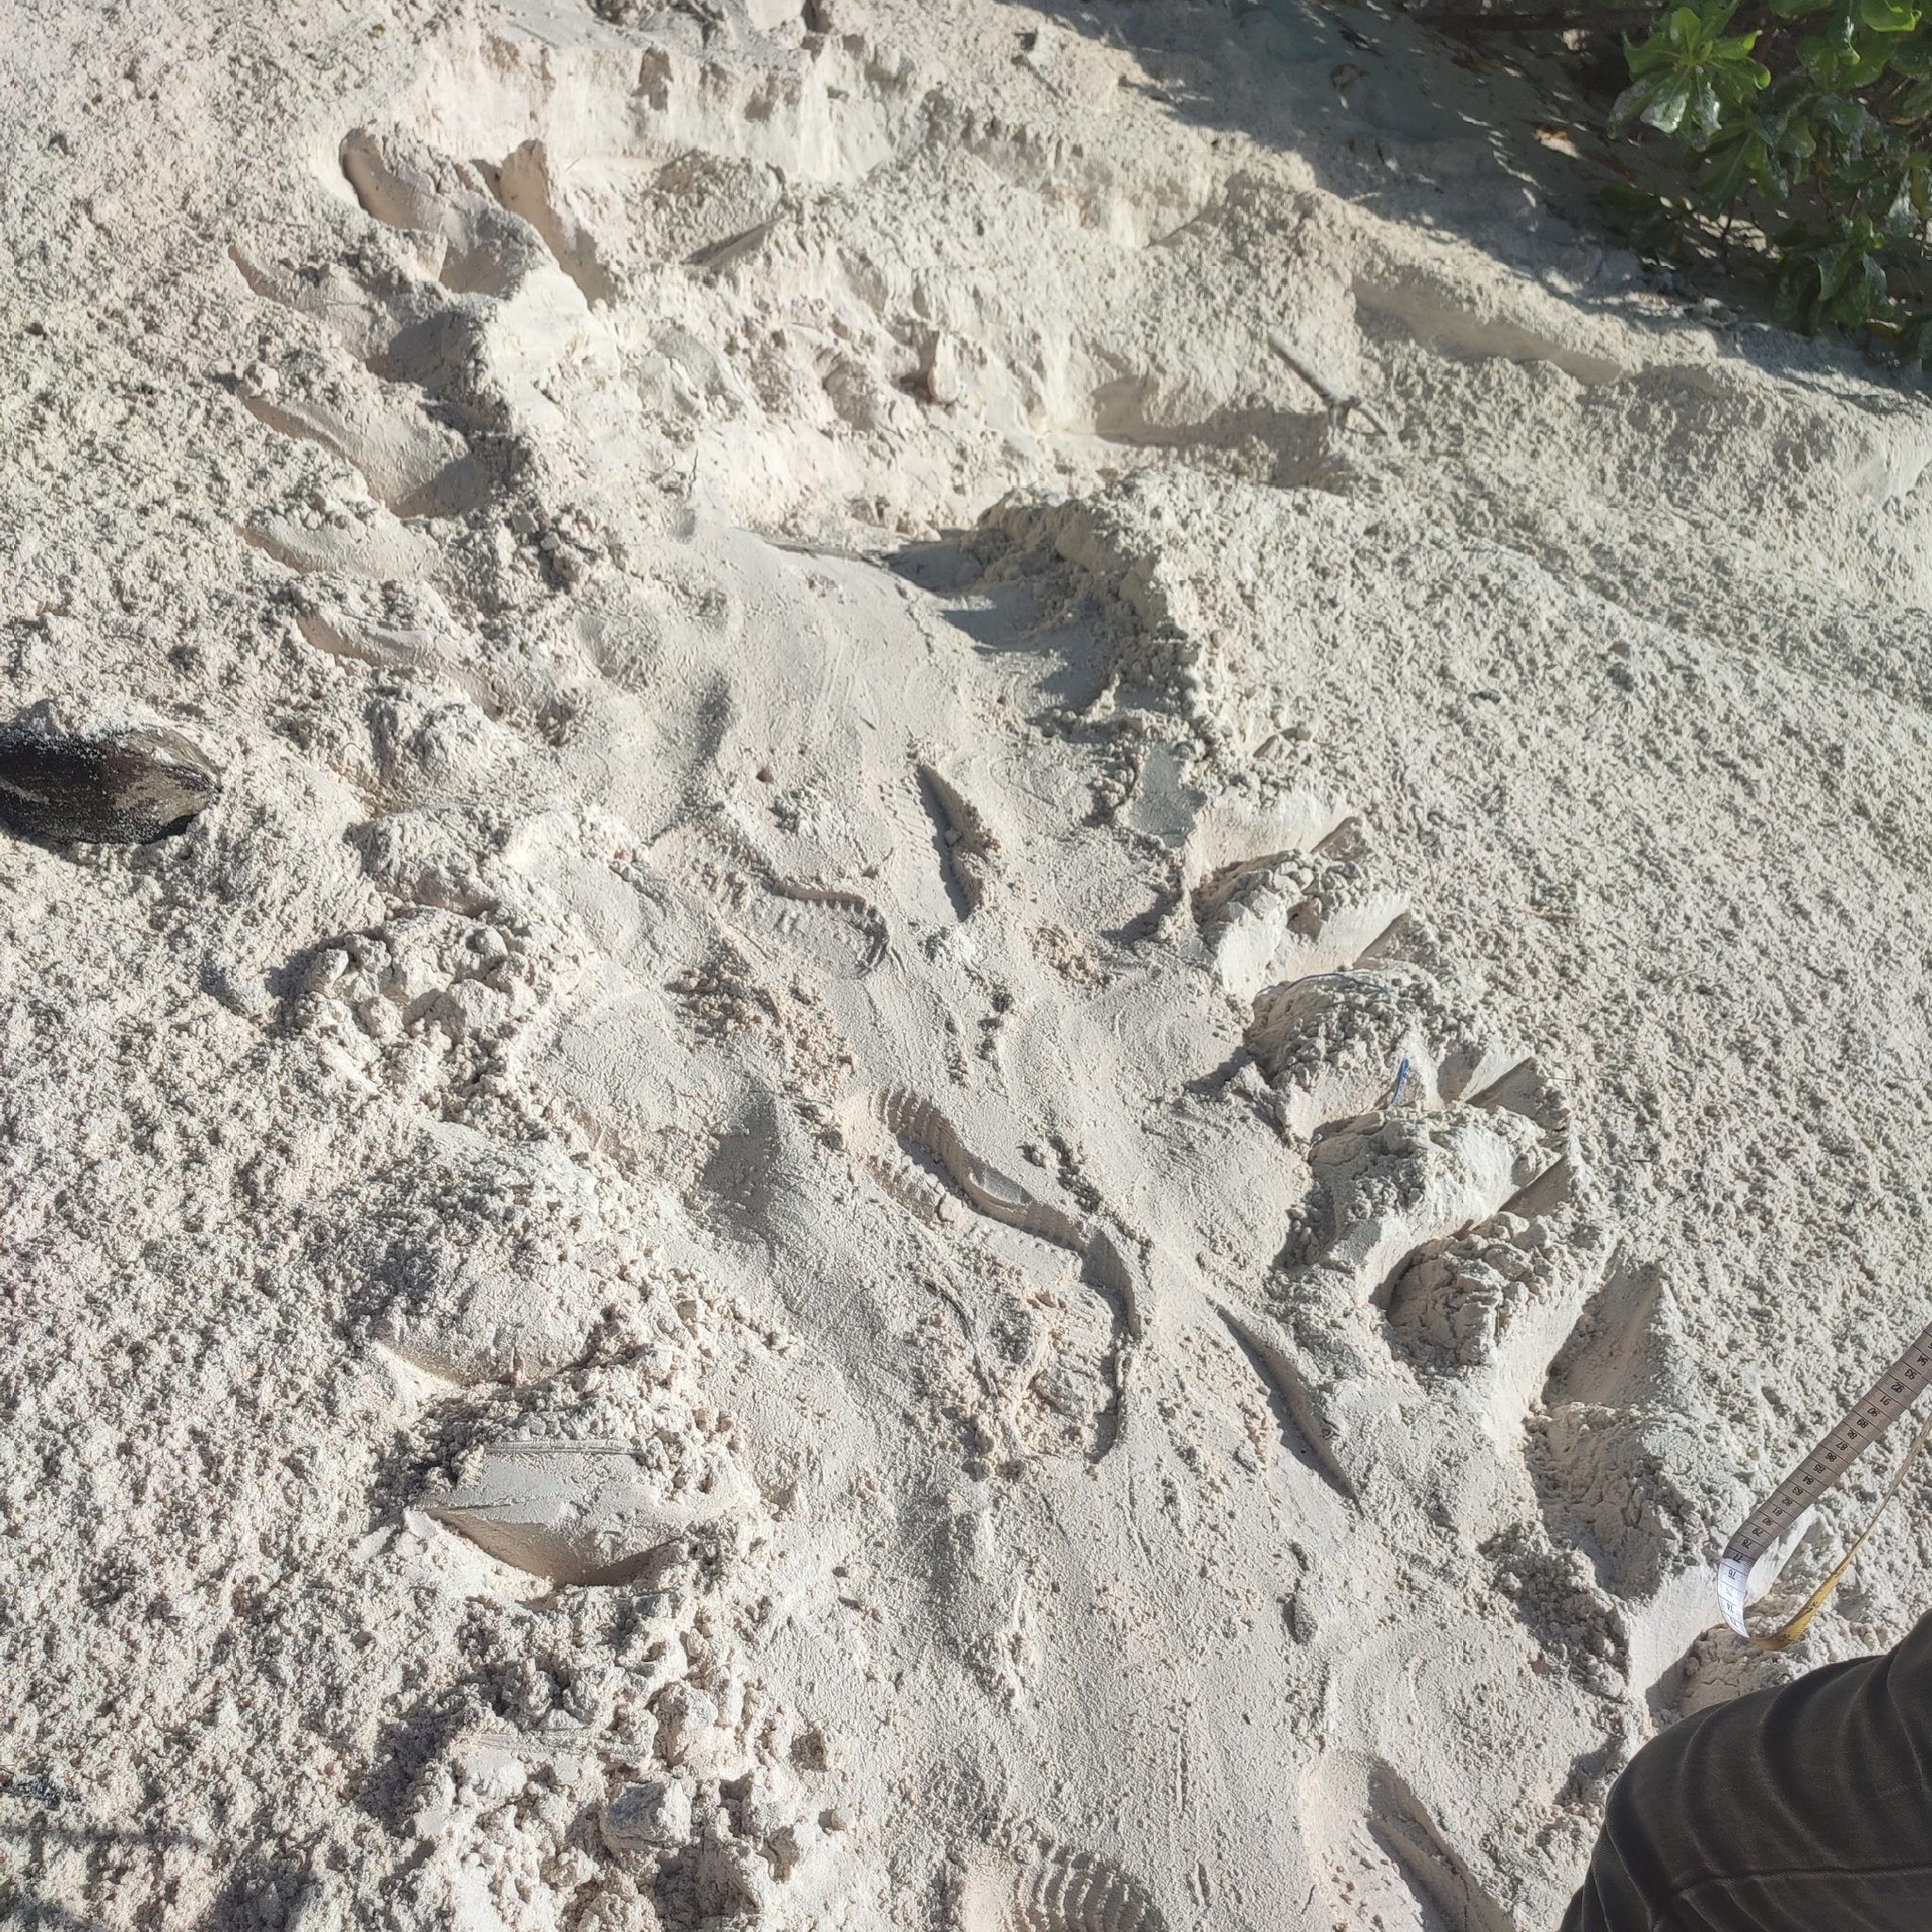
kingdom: Animalia
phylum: Chordata
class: Testudines
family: Cheloniidae
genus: Chelonia
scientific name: Chelonia mydas
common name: Green turtle
